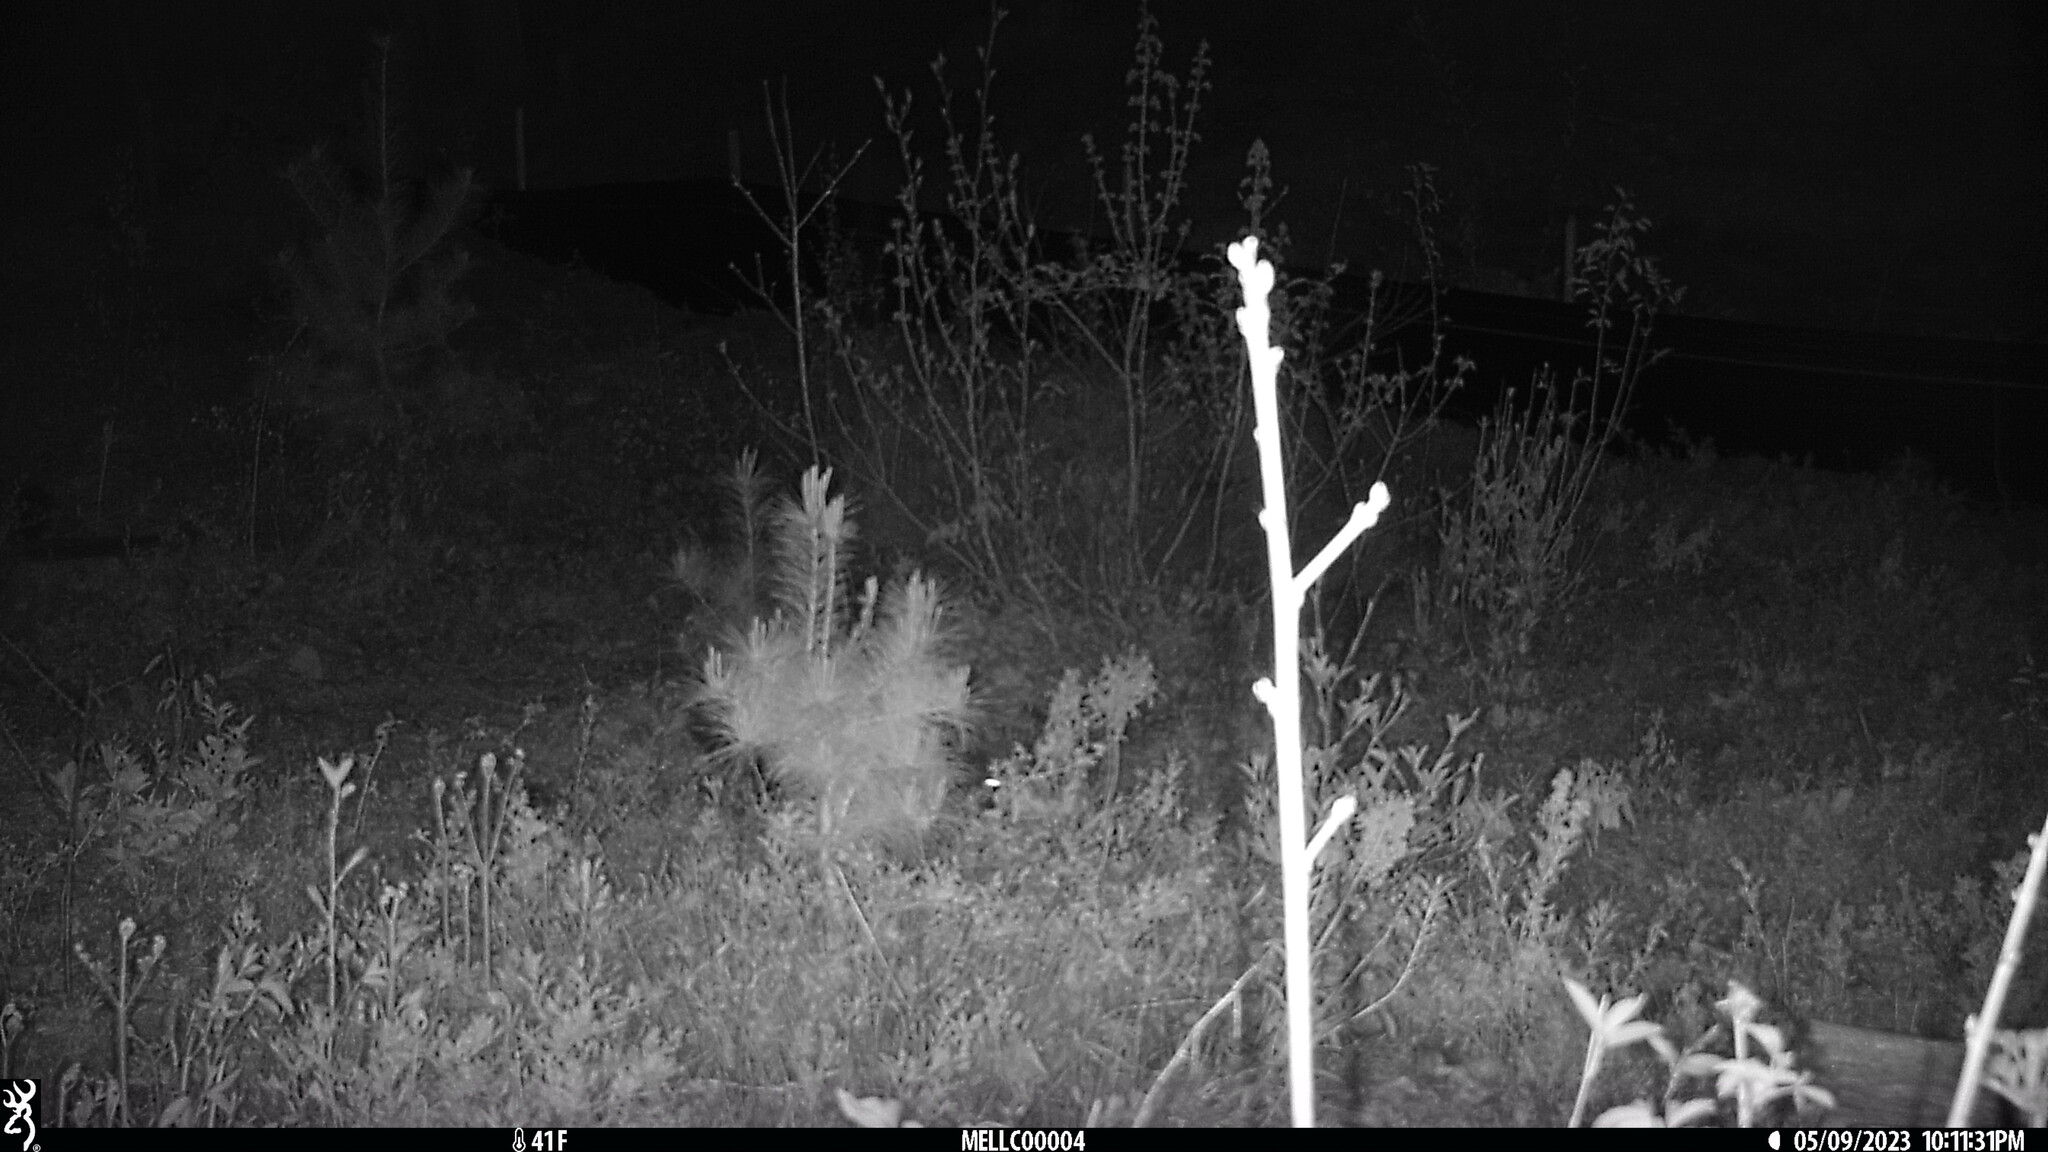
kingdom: Animalia
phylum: Chordata
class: Mammalia
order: Rodentia
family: Erethizontidae
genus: Erethizon
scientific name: Erethizon dorsatus
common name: North american porcupine
